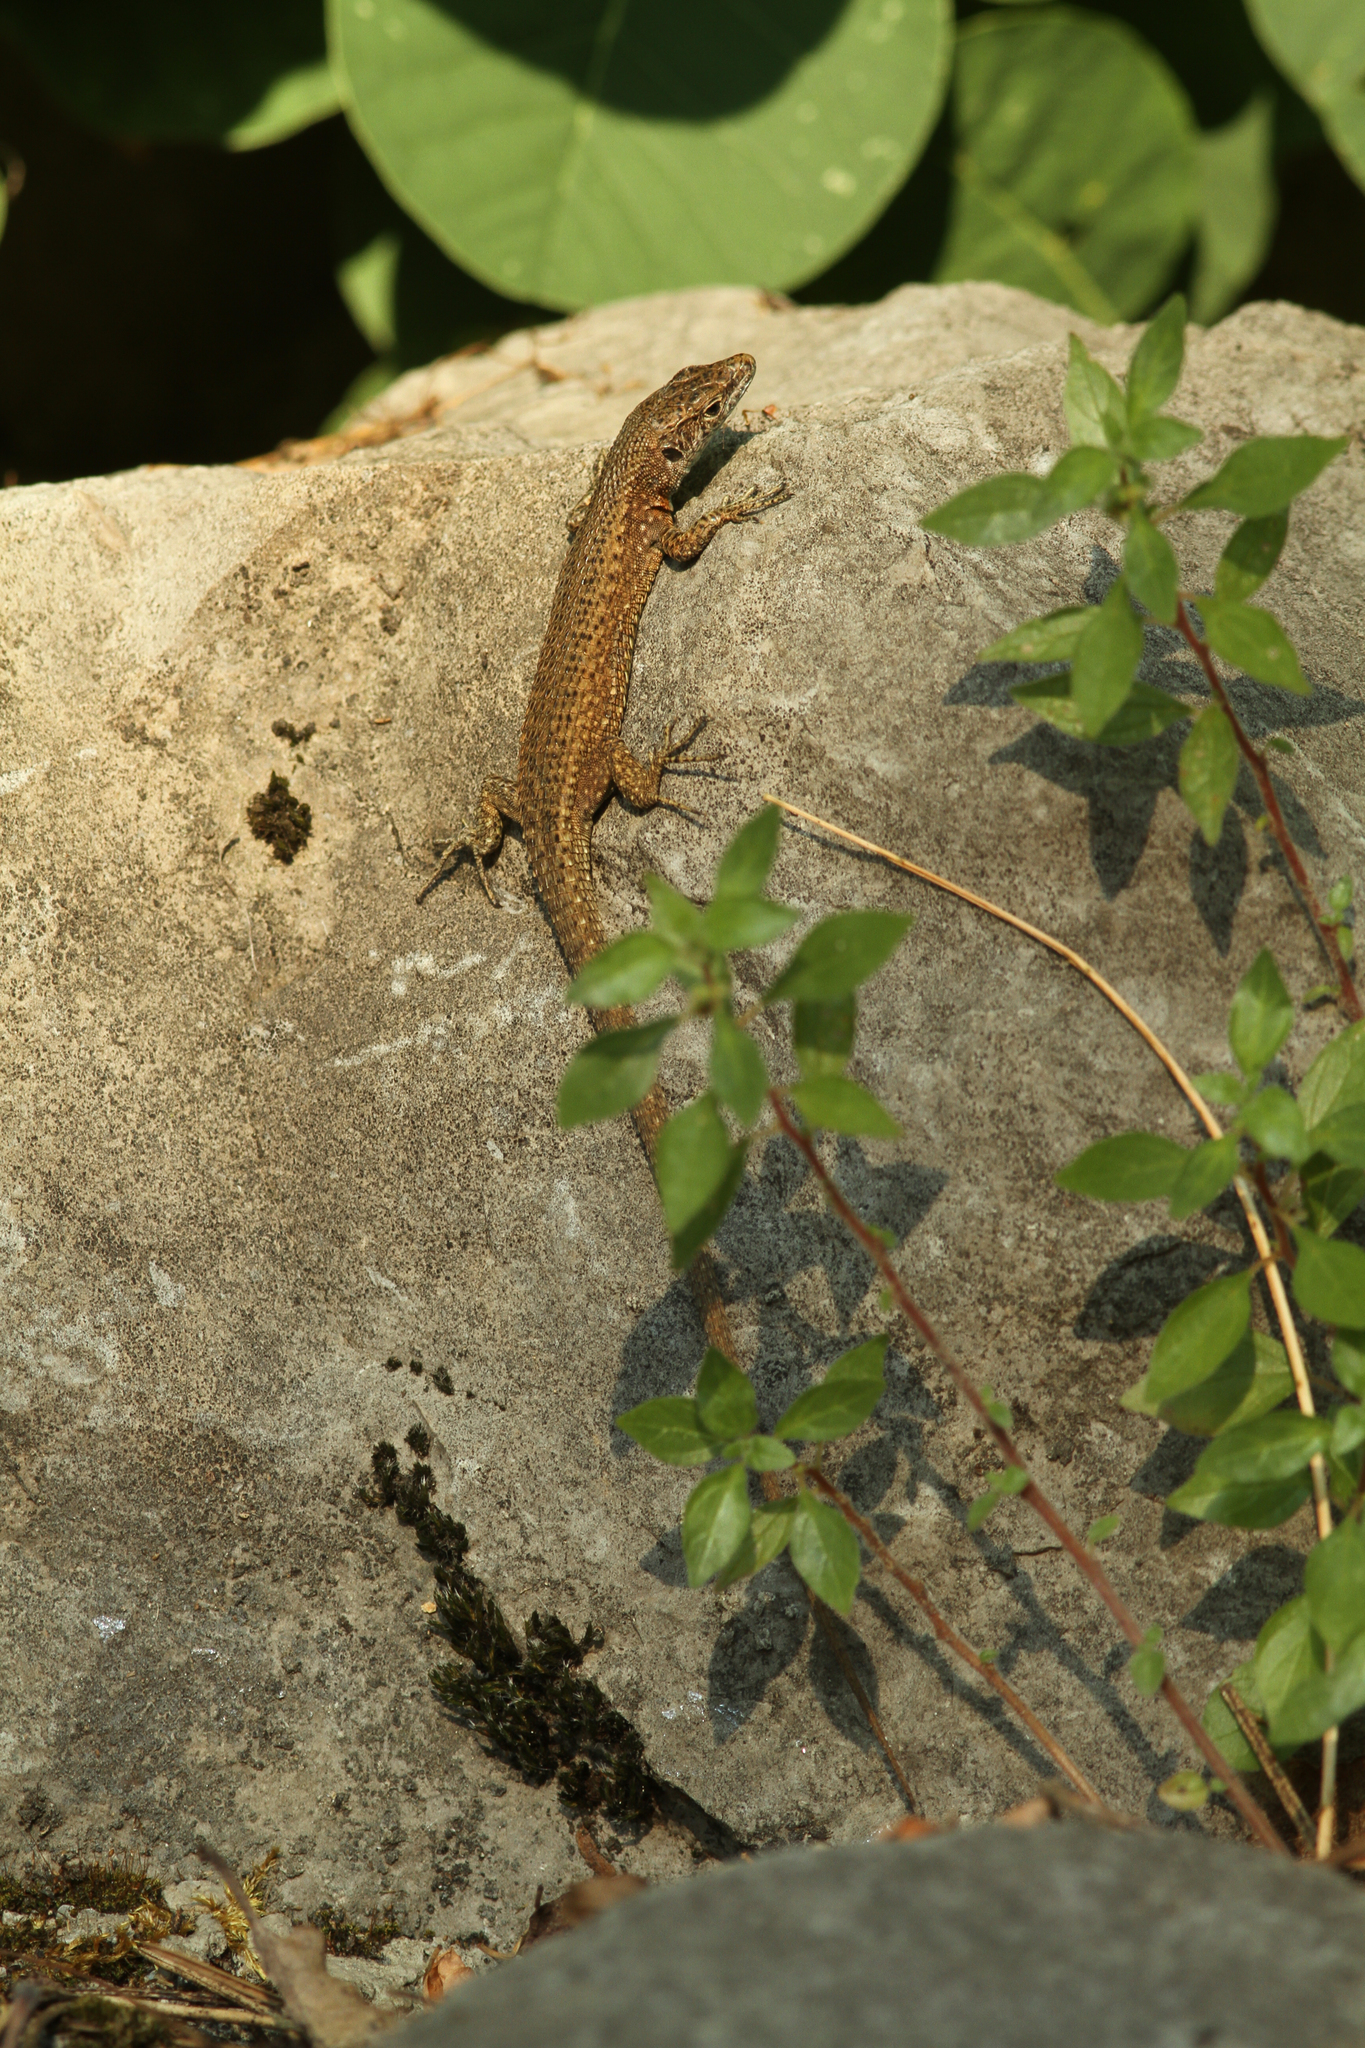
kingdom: Animalia
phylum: Chordata
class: Squamata
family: Lacertidae
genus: Algyroides
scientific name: Algyroides nigropunctatus
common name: Blue-throated keeled lizard
